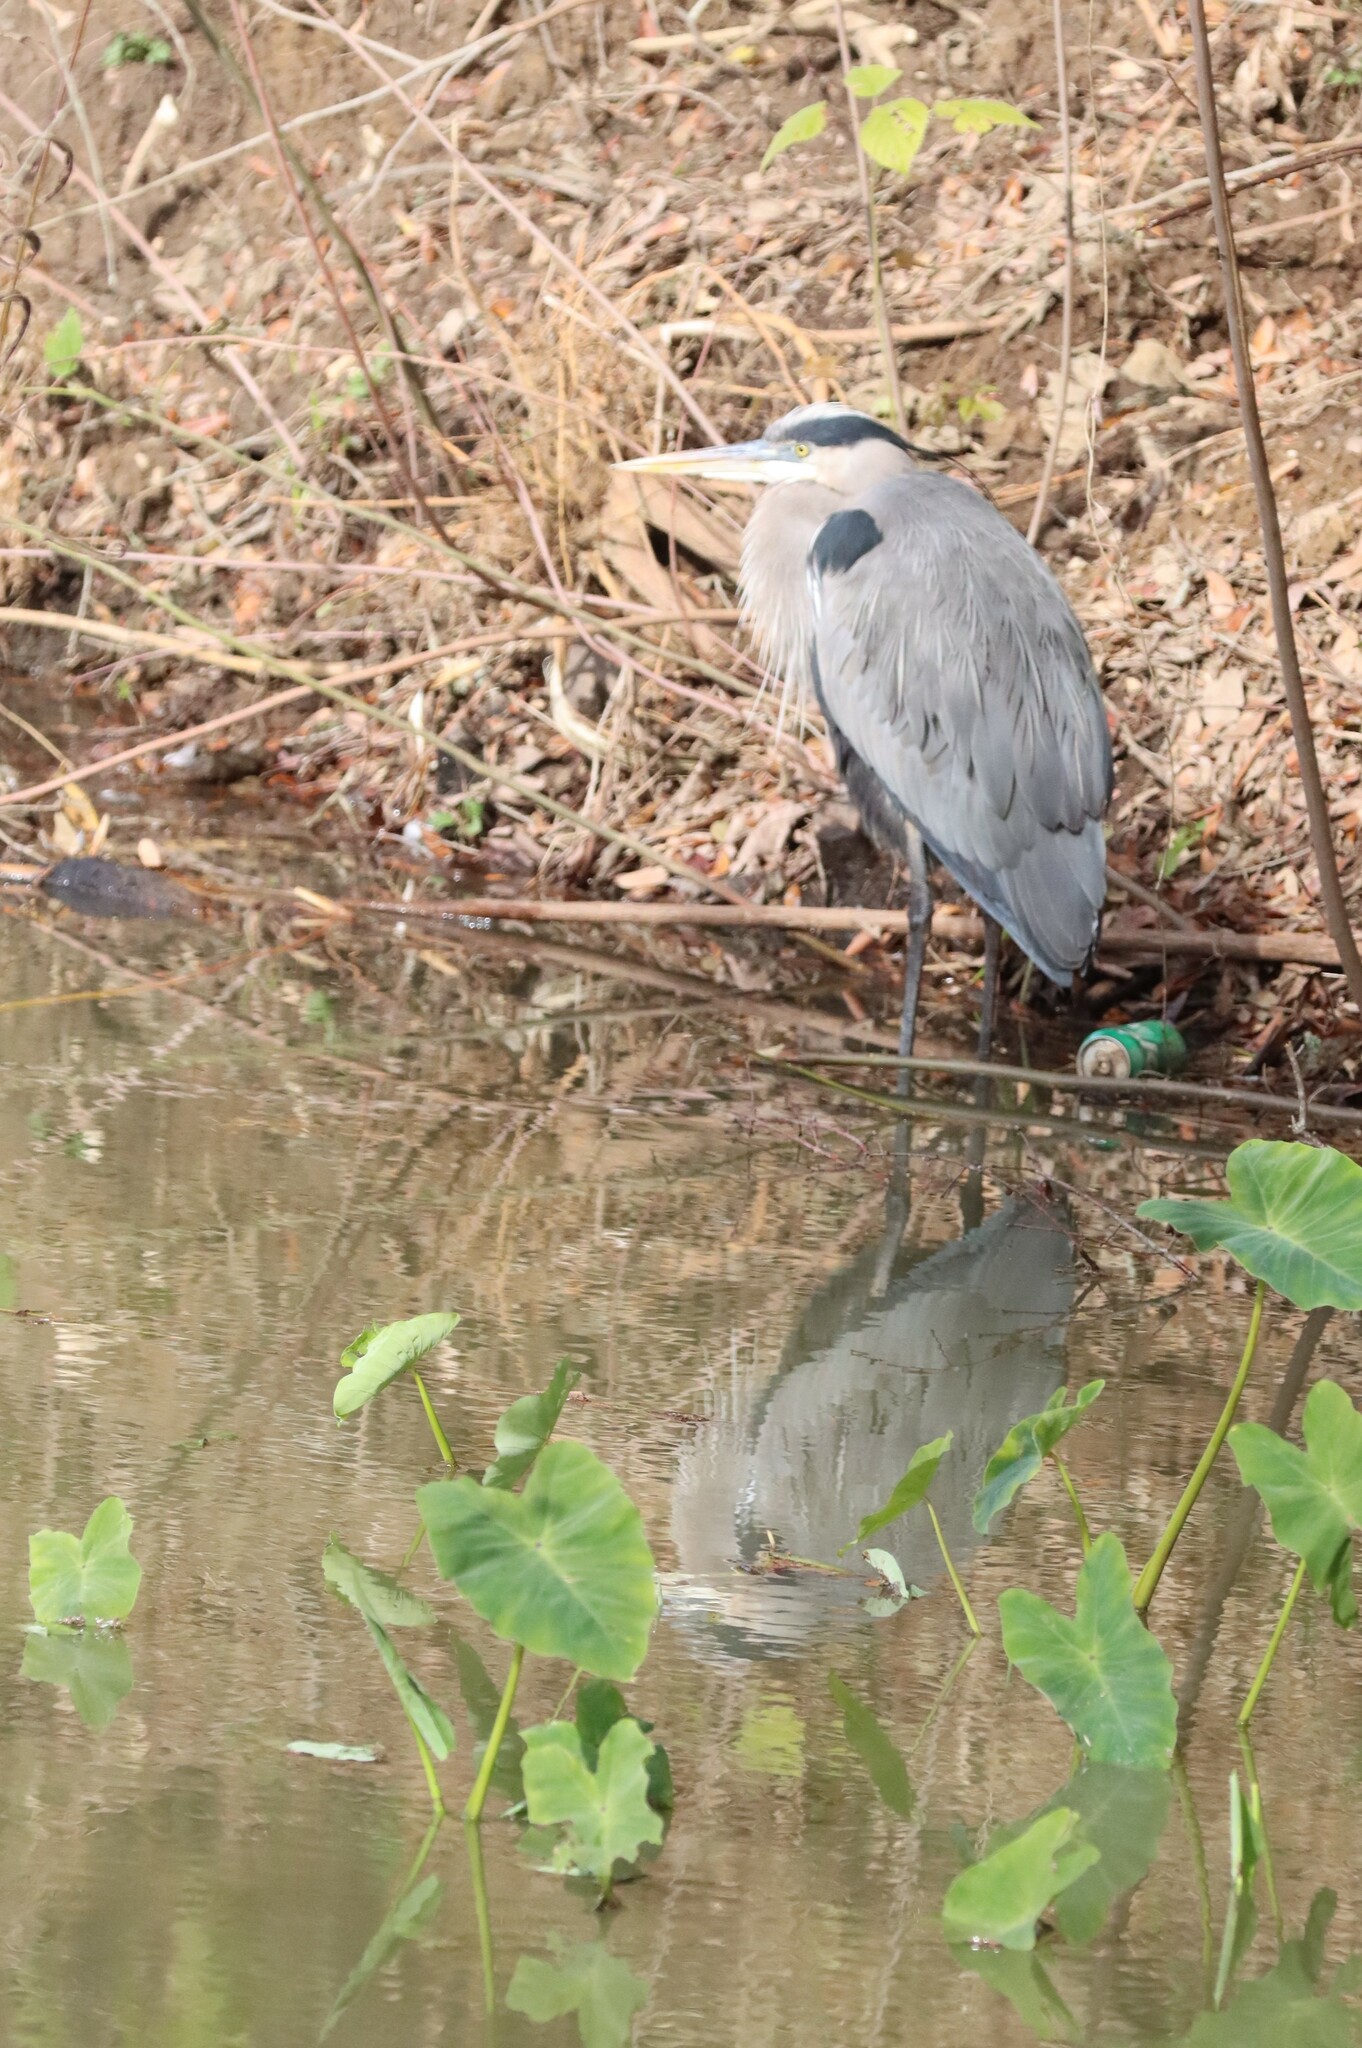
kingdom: Animalia
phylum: Chordata
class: Aves
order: Pelecaniformes
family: Ardeidae
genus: Ardea
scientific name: Ardea herodias
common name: Great blue heron
